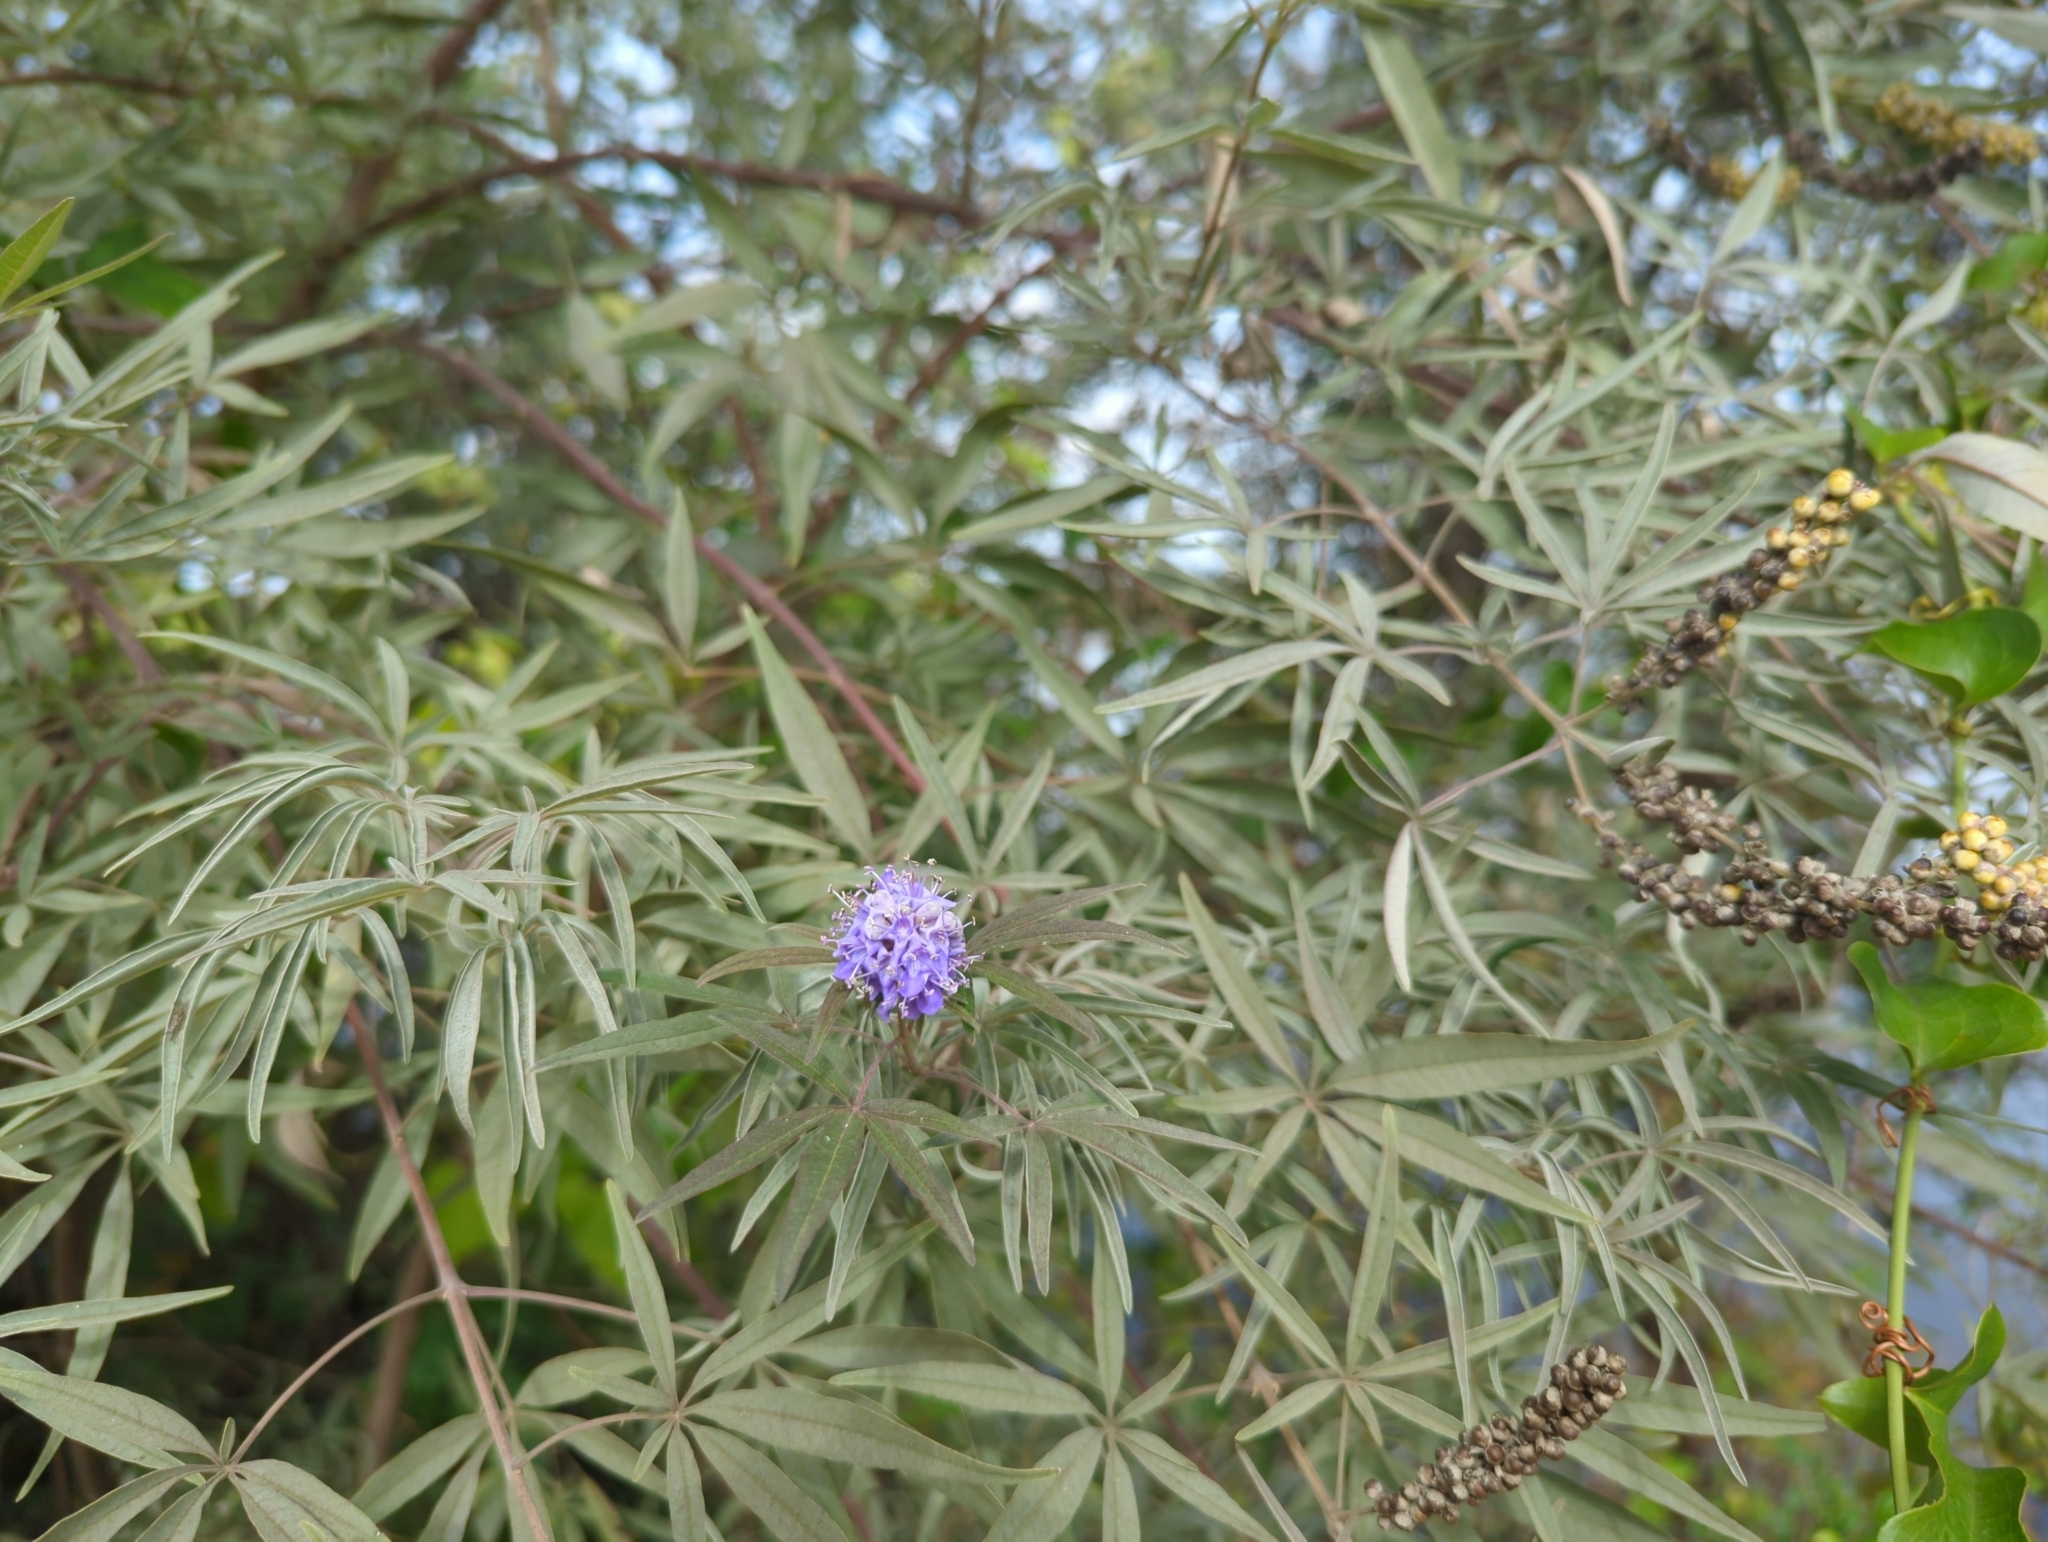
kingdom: Plantae
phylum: Tracheophyta
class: Magnoliopsida
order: Lamiales
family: Lamiaceae
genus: Vitex
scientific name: Vitex agnus-castus
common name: Chasteberry
